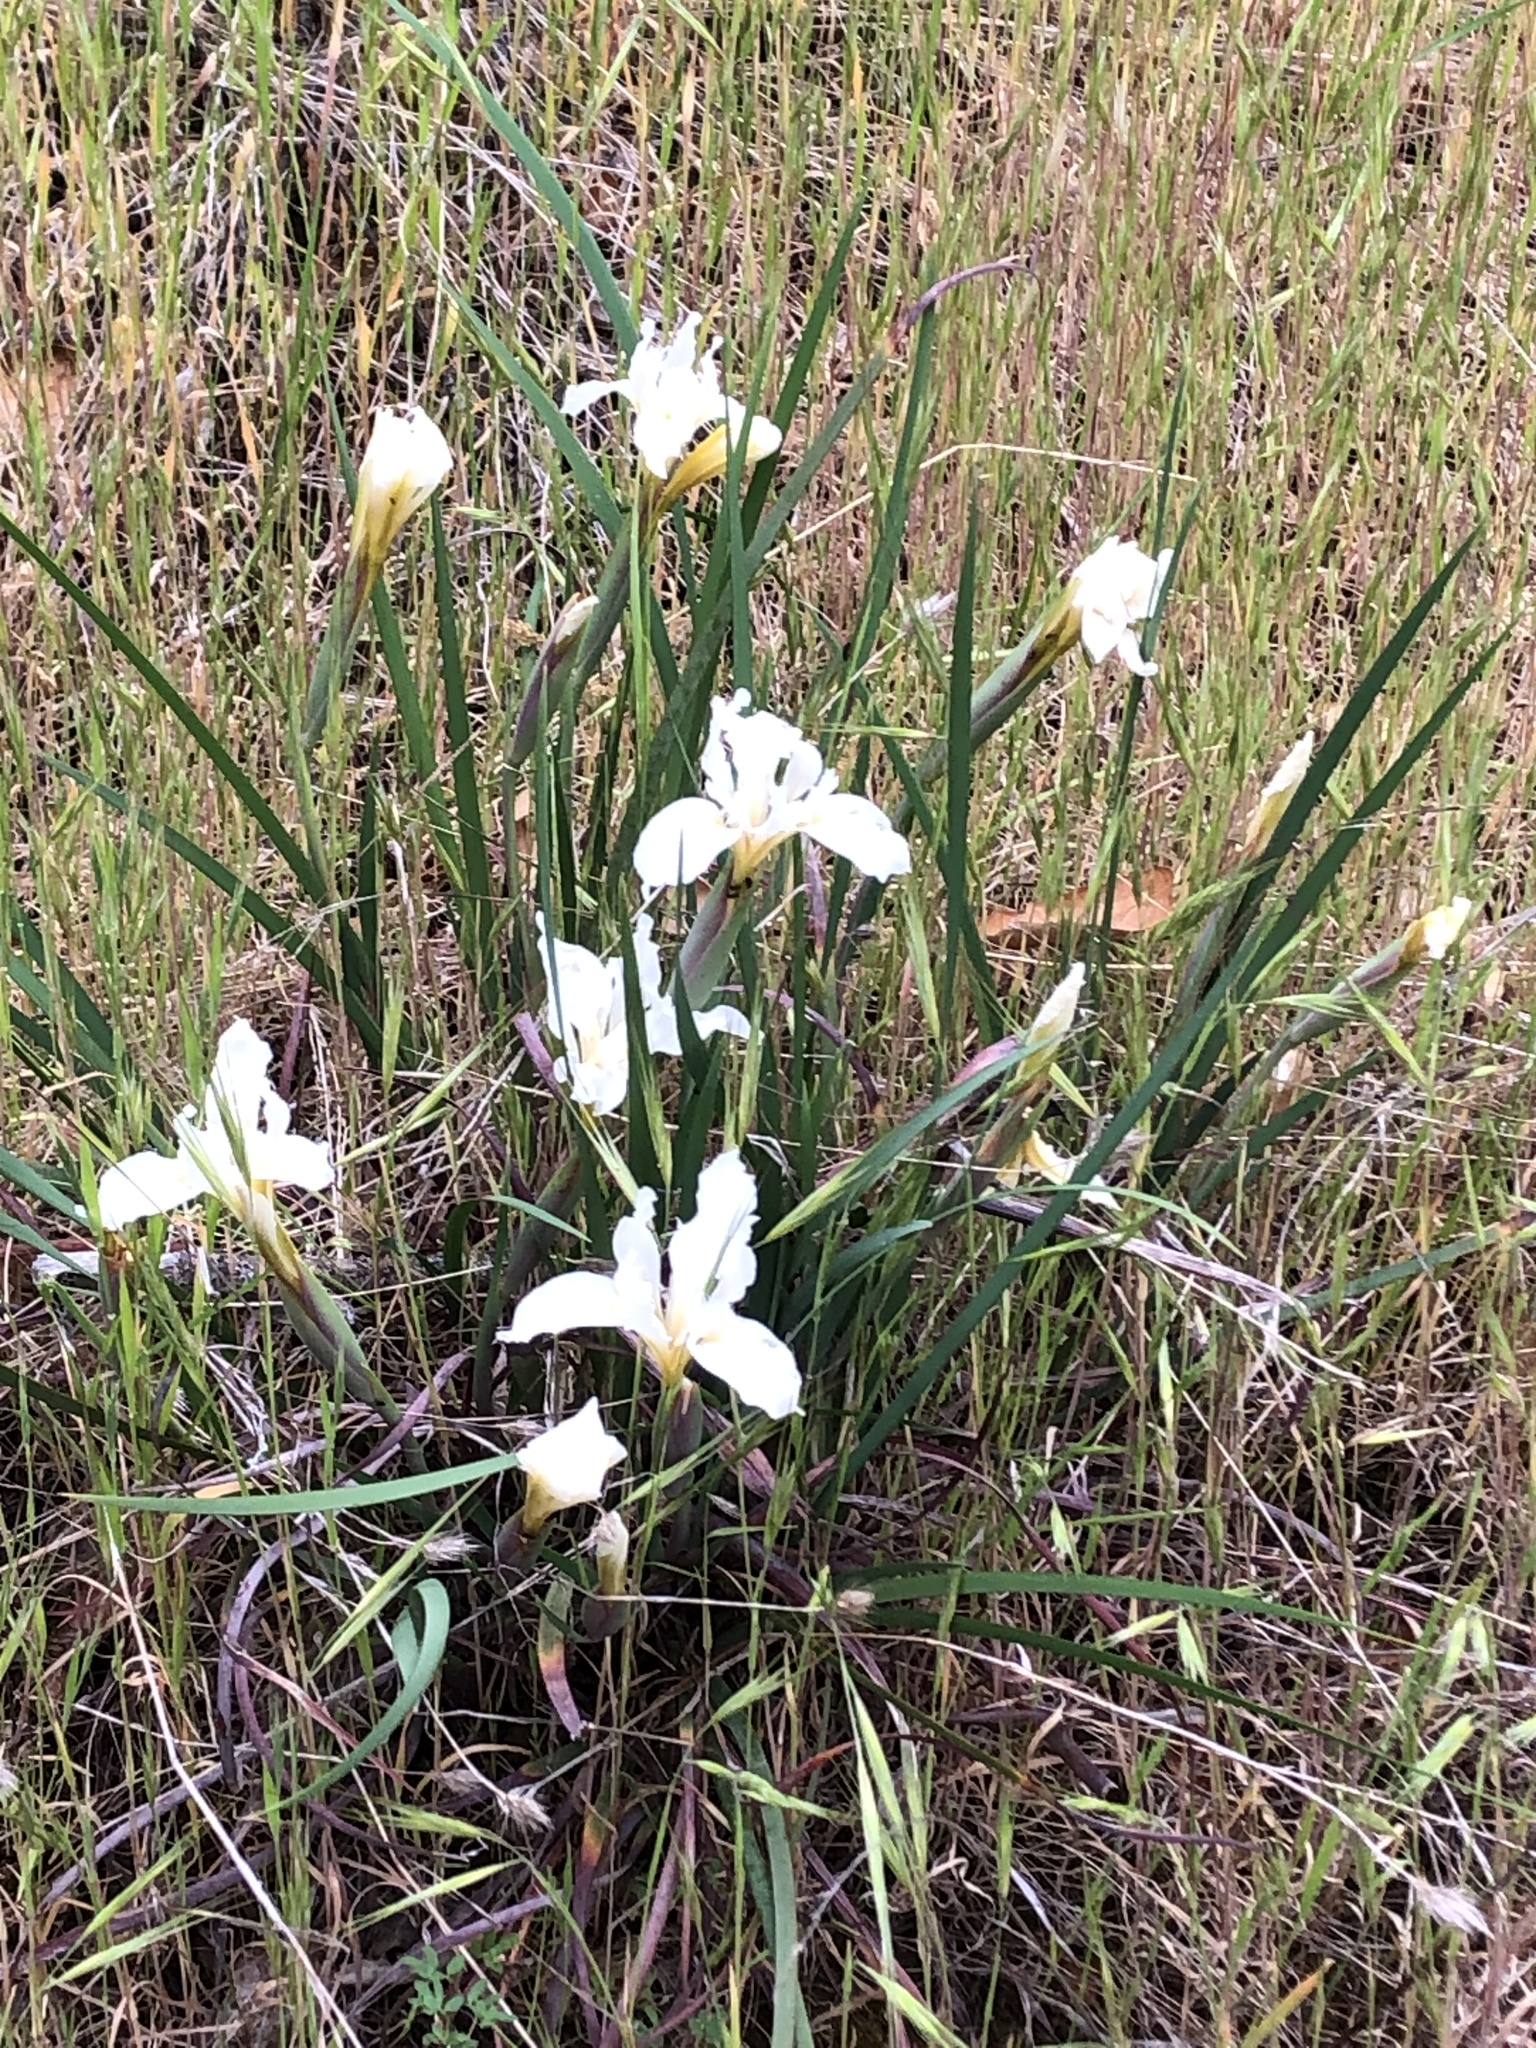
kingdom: Plantae
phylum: Tracheophyta
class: Liliopsida
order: Asparagales
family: Iridaceae
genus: Iris
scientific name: Iris fernaldii
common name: Fernald's iris
